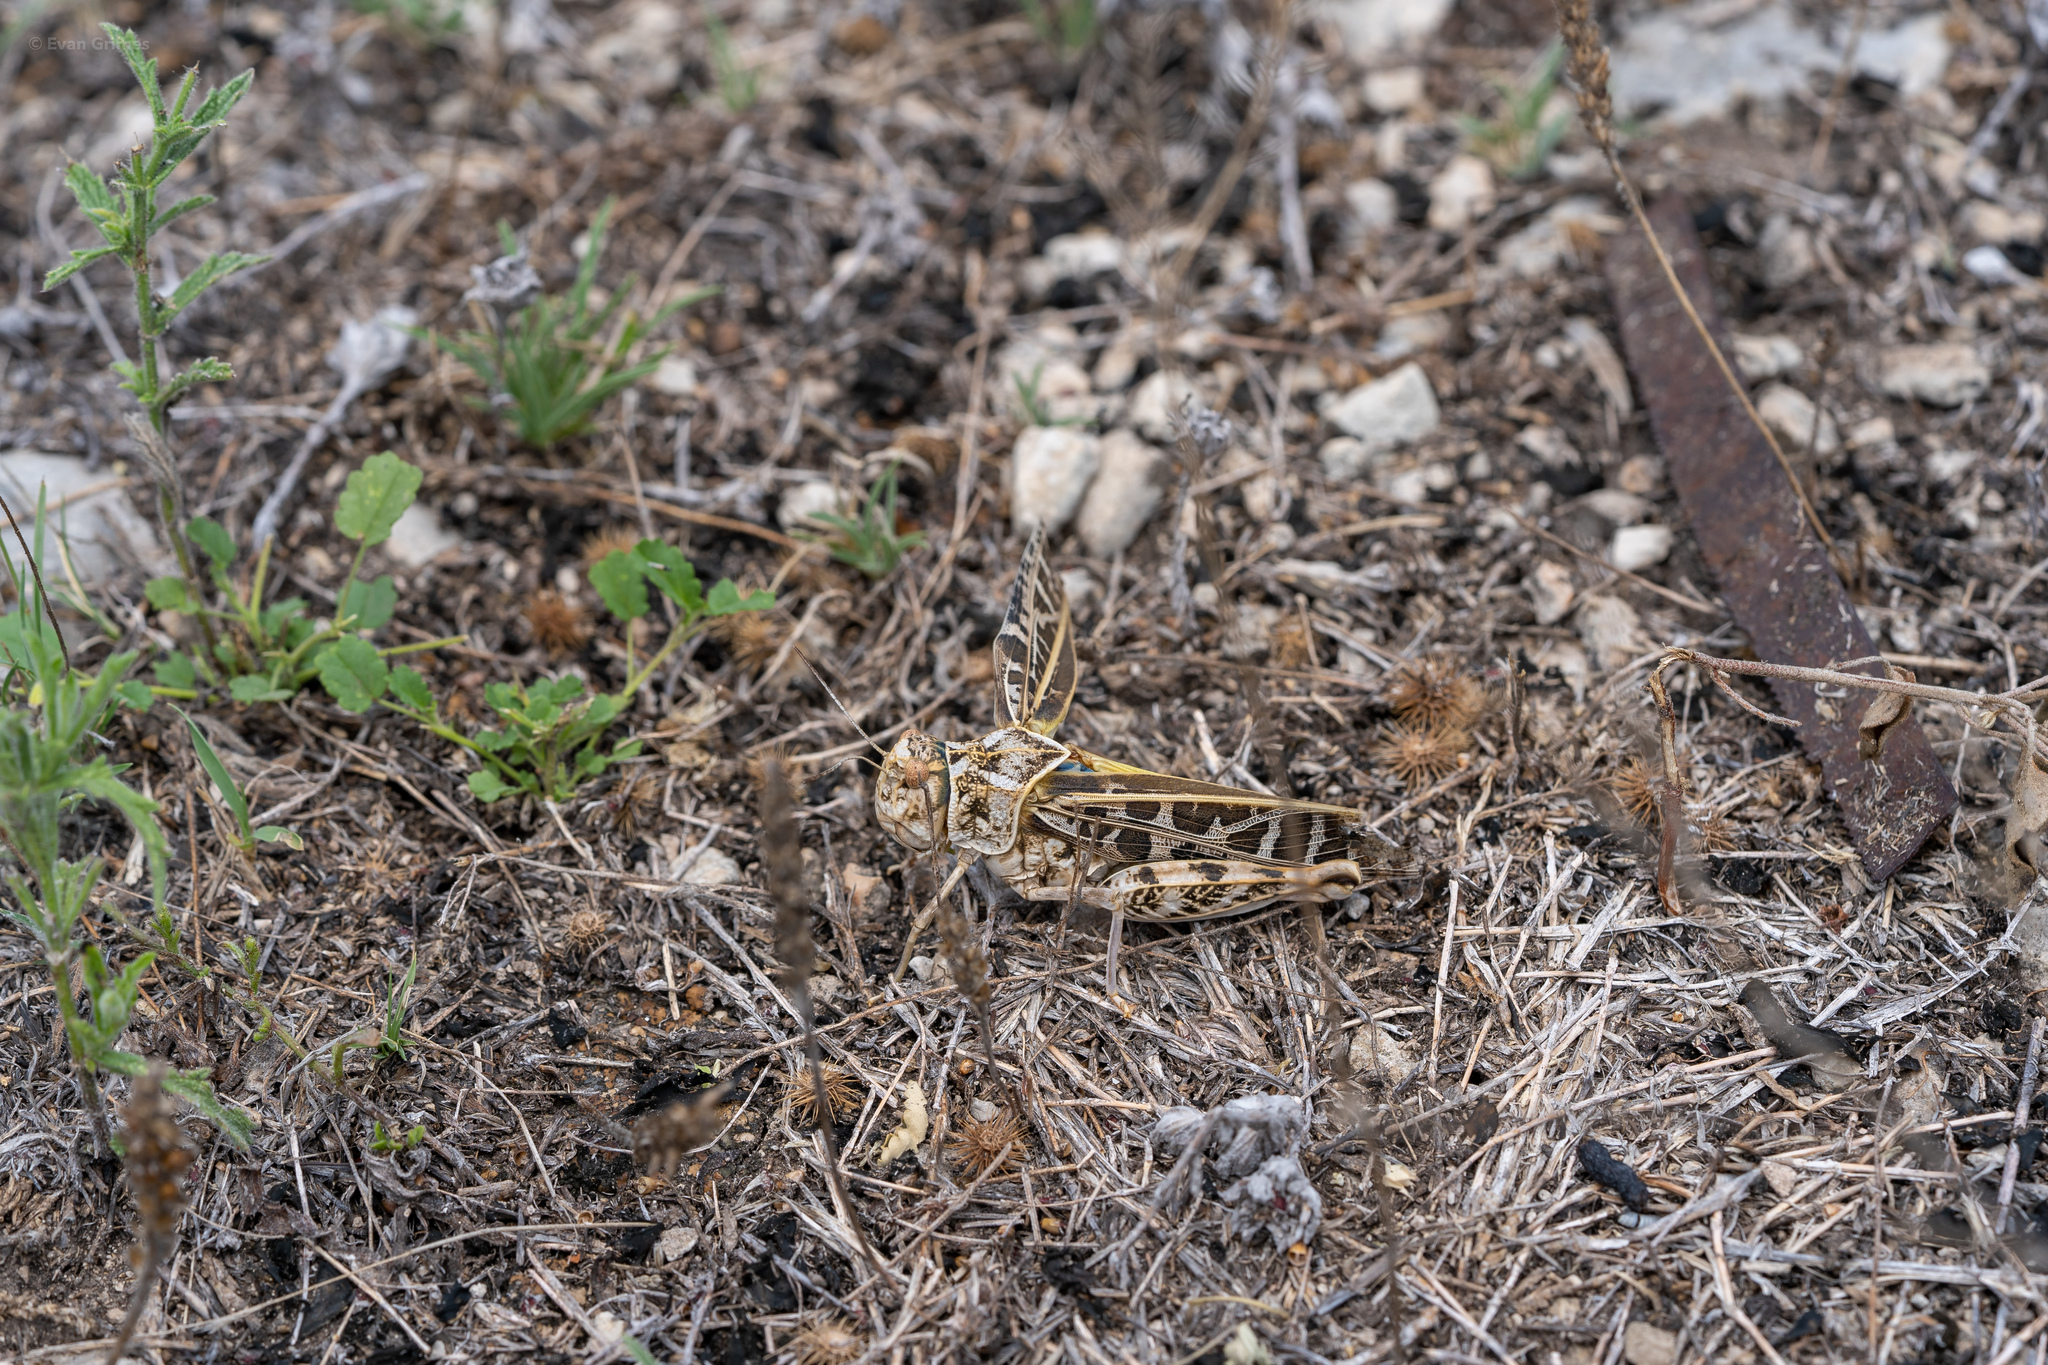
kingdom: Animalia
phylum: Arthropoda
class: Insecta
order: Orthoptera
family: Acrididae
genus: Xanthippus
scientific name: Xanthippus corallipes
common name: Redshanked grasshopper
